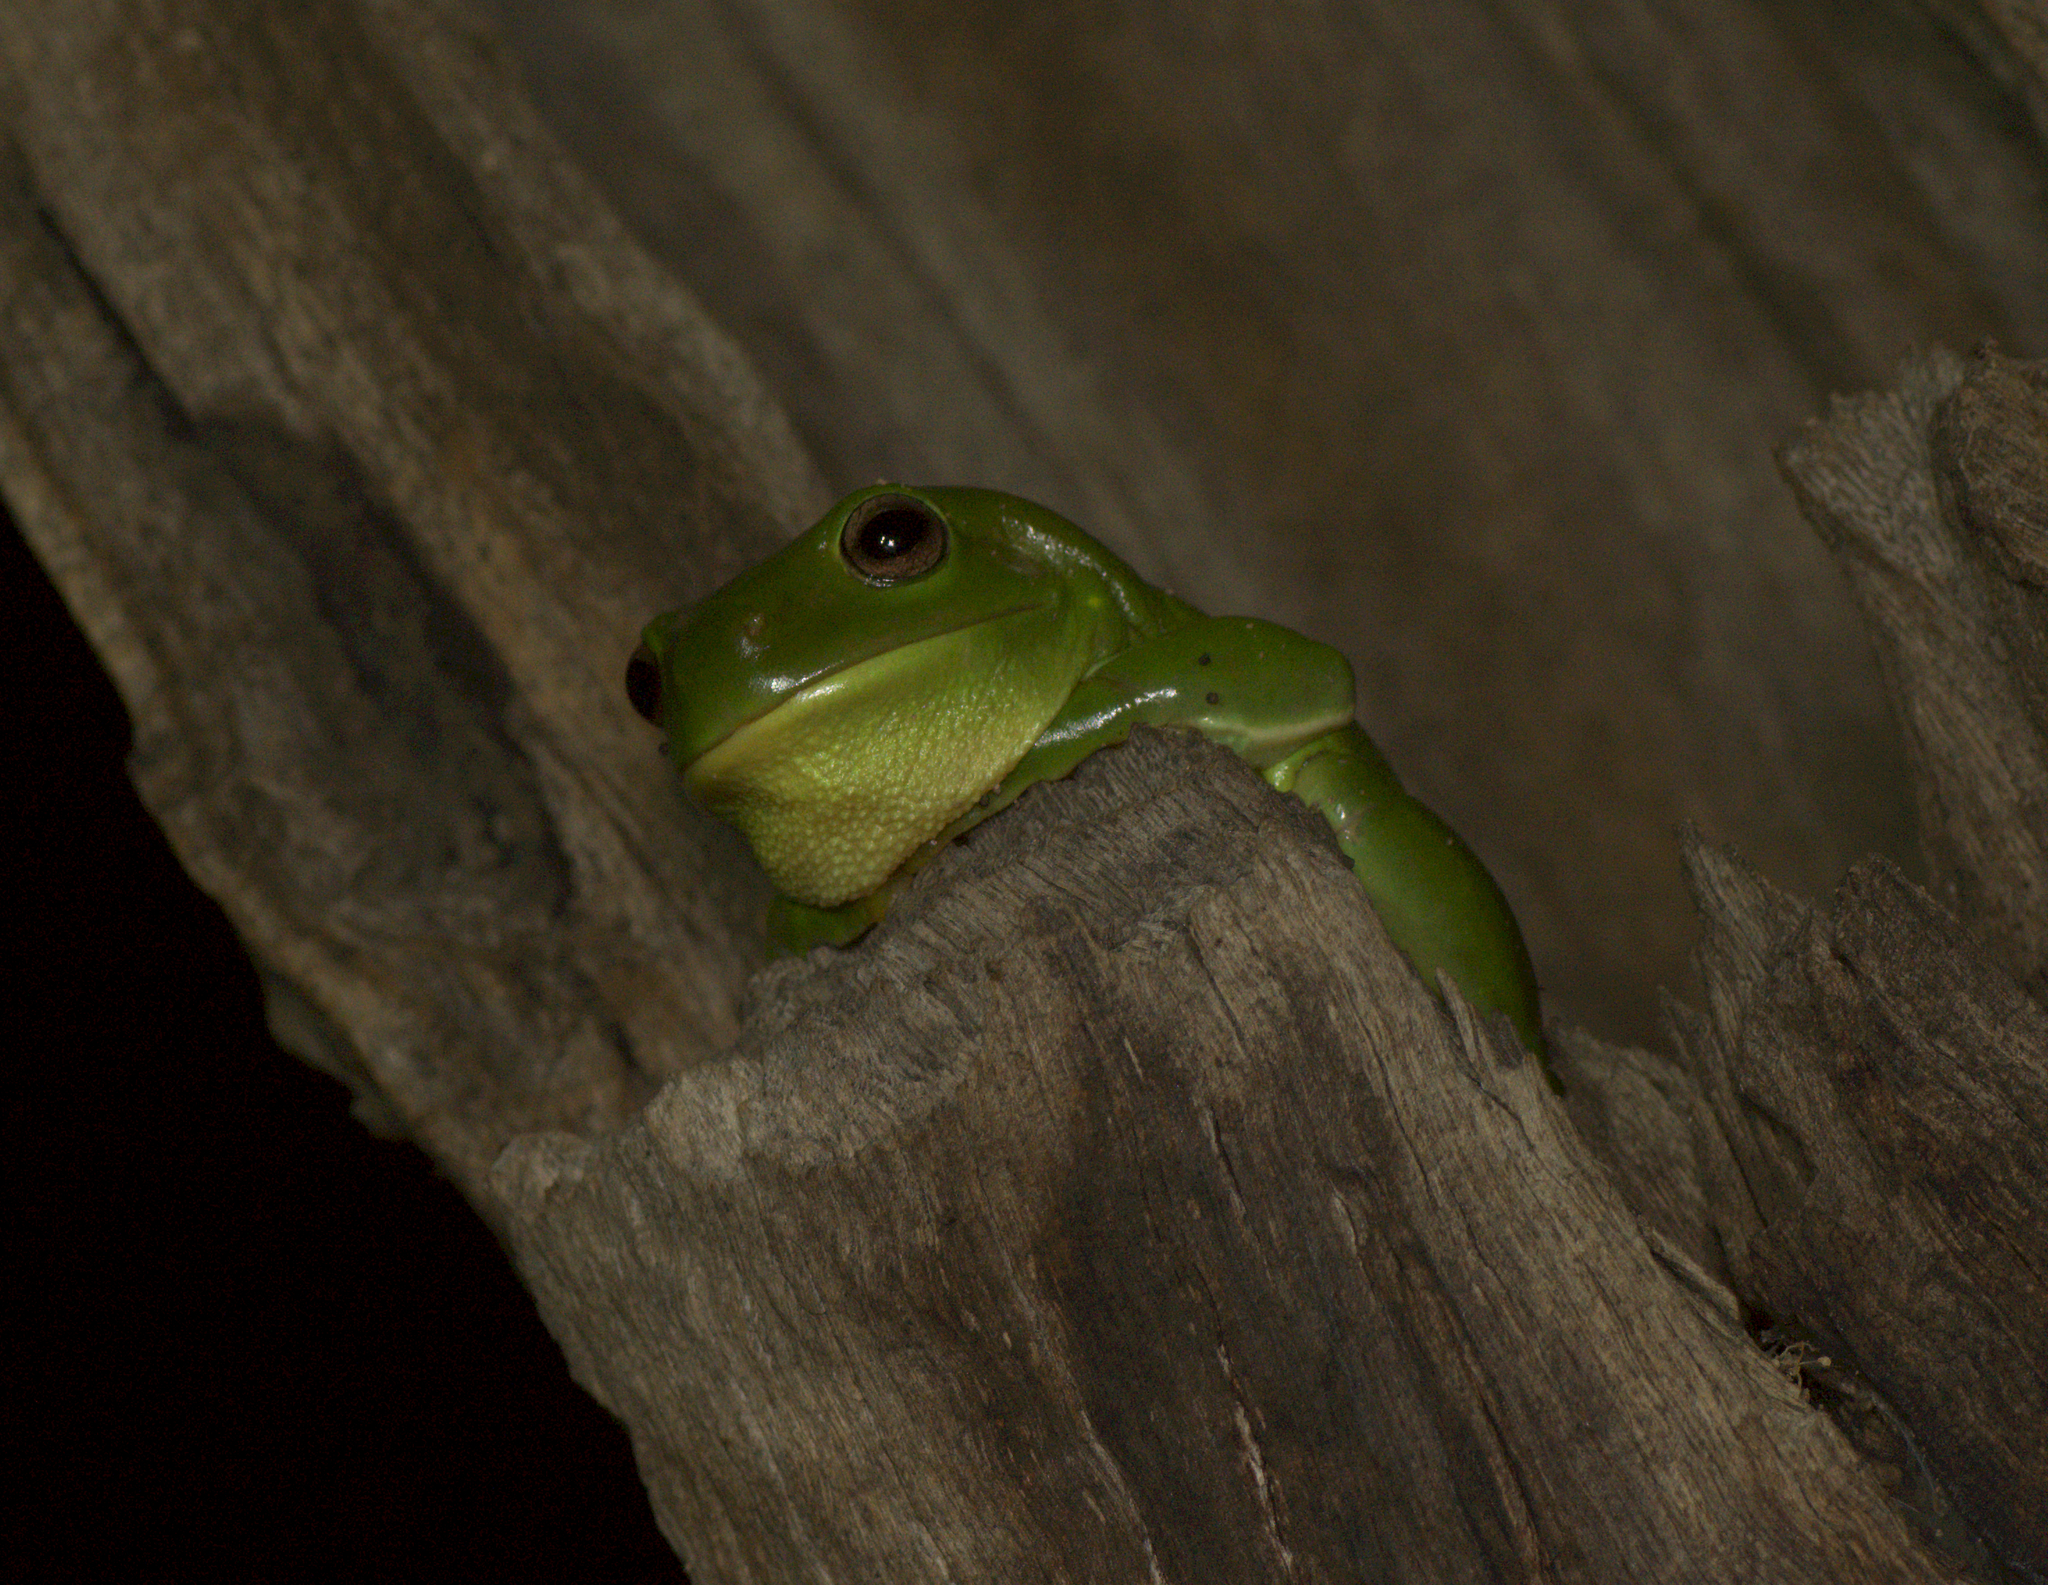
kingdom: Animalia
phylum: Chordata
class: Amphibia
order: Anura
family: Pelodryadidae
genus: Ranoidea
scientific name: Ranoidea caerulea
